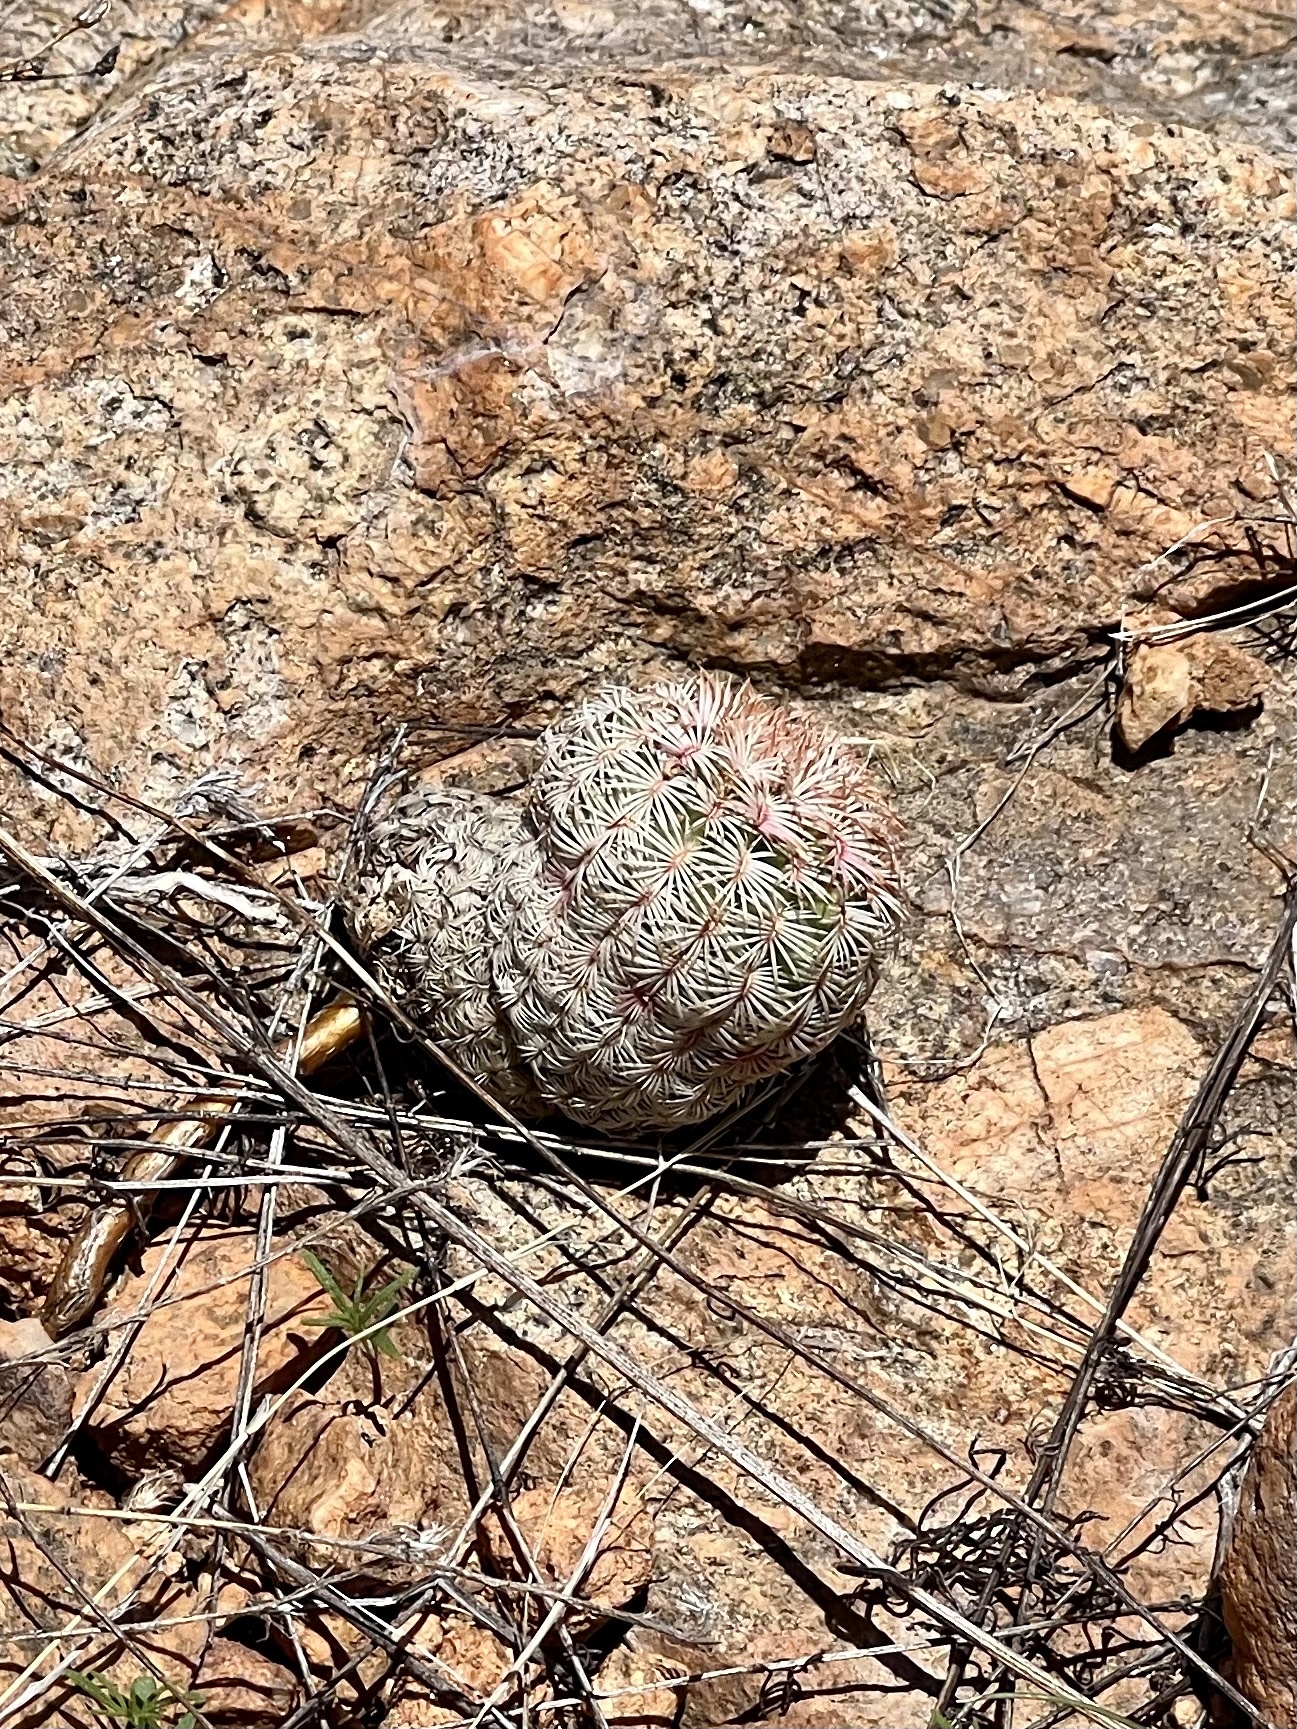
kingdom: Plantae
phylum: Tracheophyta
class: Magnoliopsida
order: Caryophyllales
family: Cactaceae
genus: Echinocereus
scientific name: Echinocereus rigidissimus
